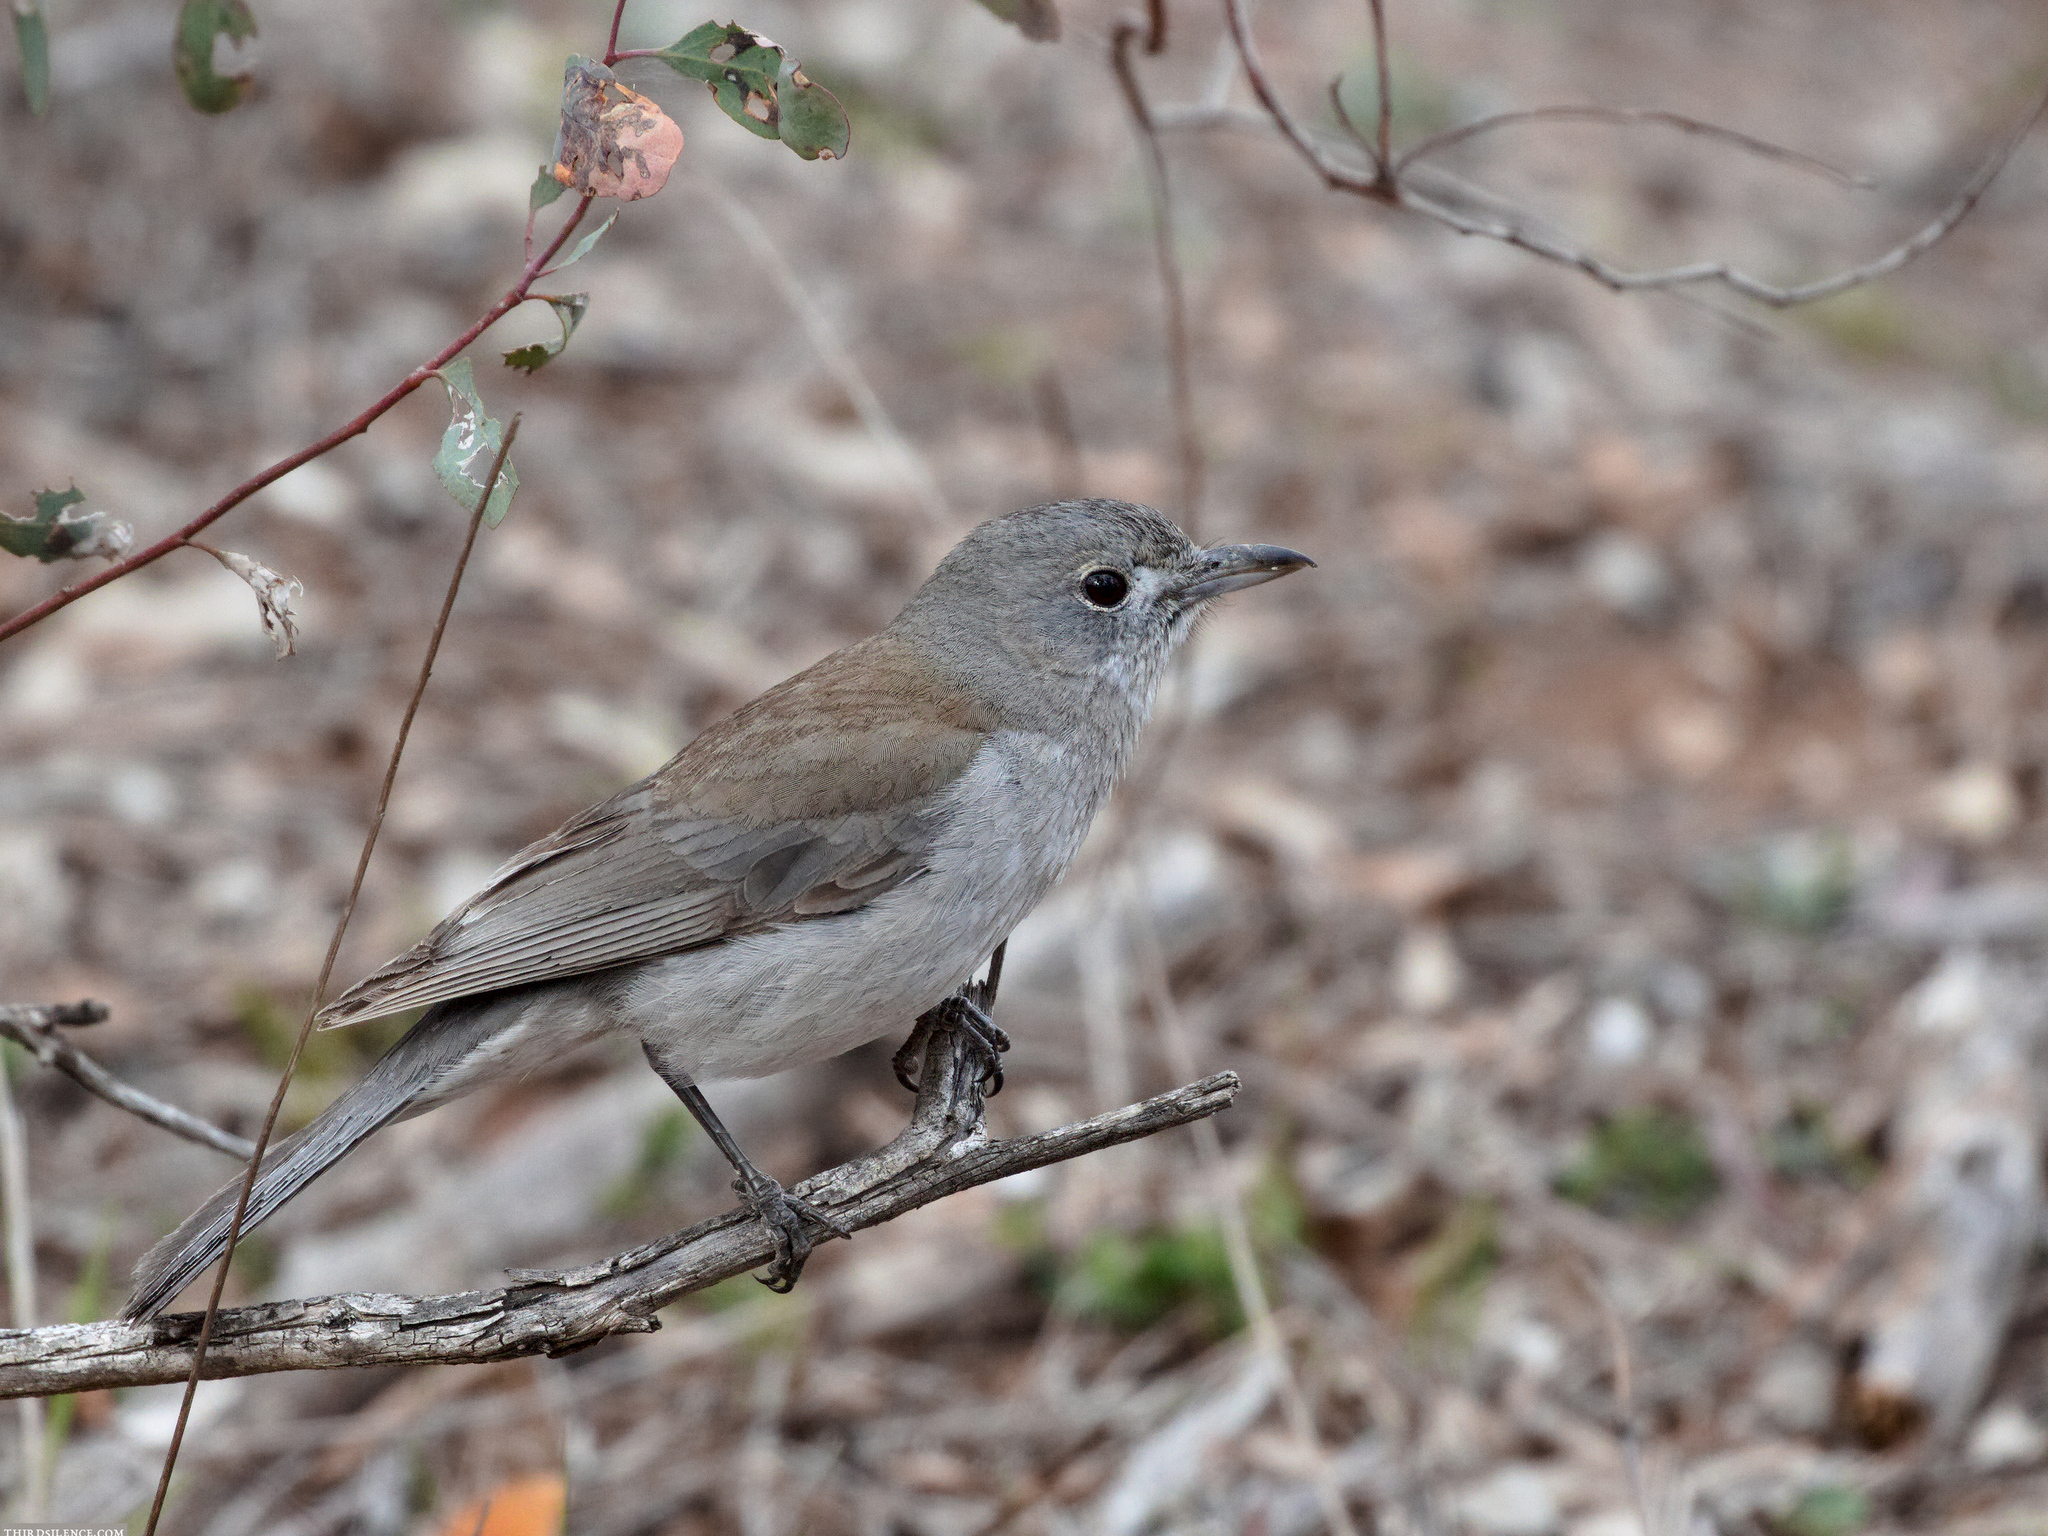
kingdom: Animalia
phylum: Chordata
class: Aves
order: Passeriformes
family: Pachycephalidae
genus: Colluricincla
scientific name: Colluricincla harmonica
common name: Grey shrikethrush
